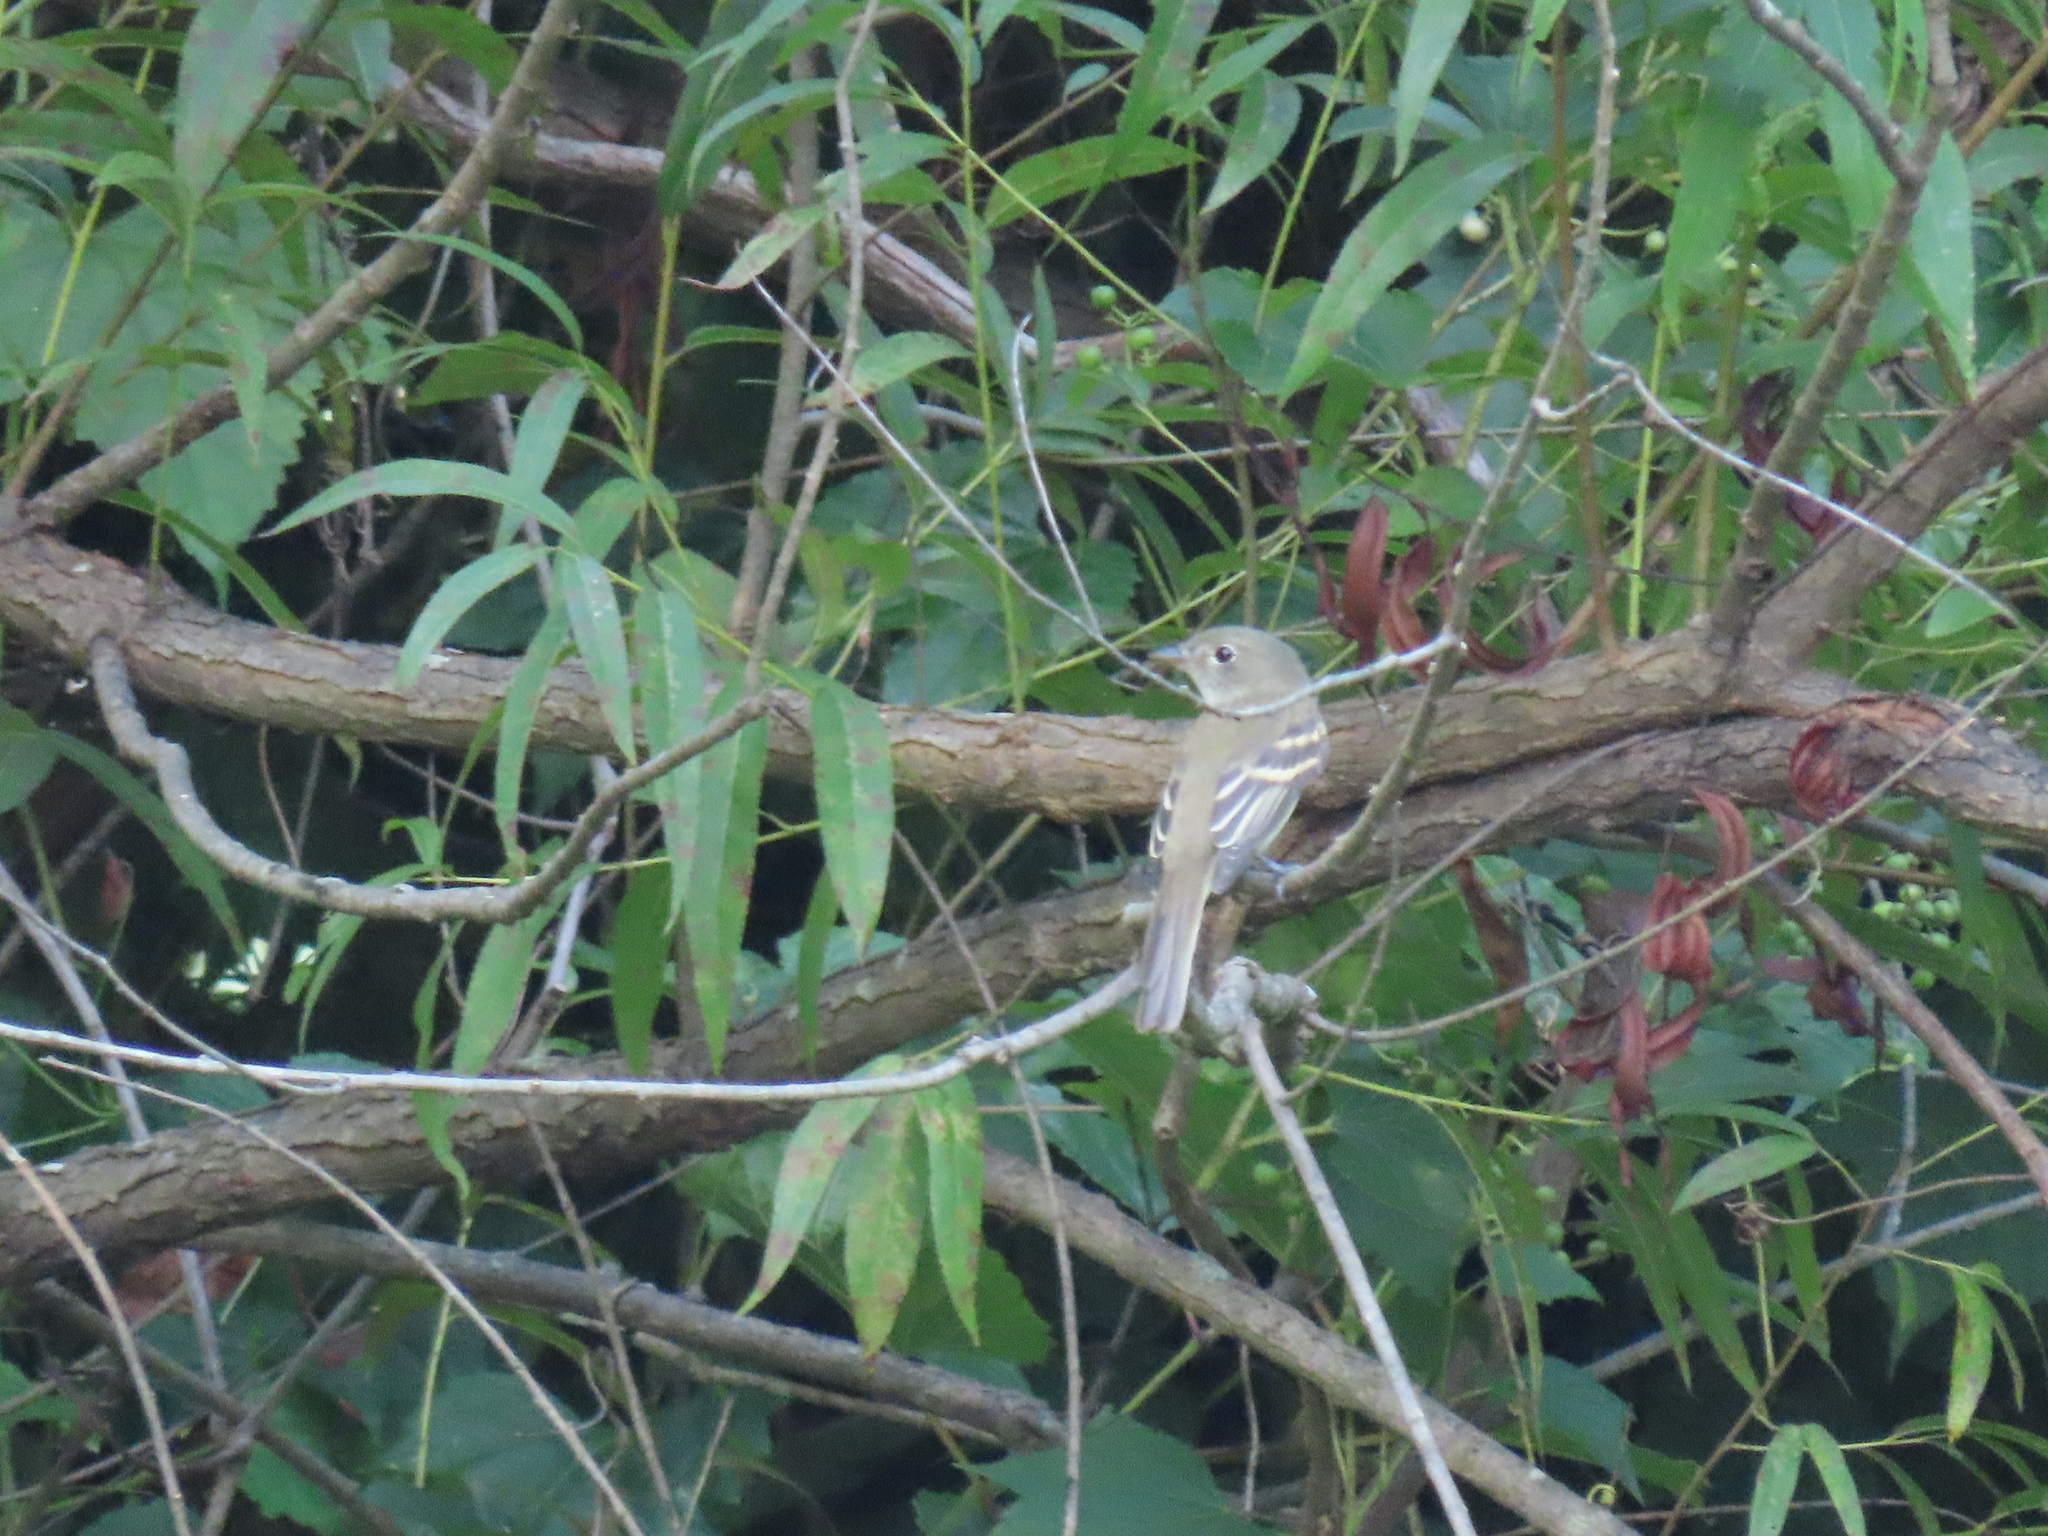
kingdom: Animalia
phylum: Chordata
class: Aves
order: Passeriformes
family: Tyrannidae
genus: Empidonax
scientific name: Empidonax minimus
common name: Least flycatcher
